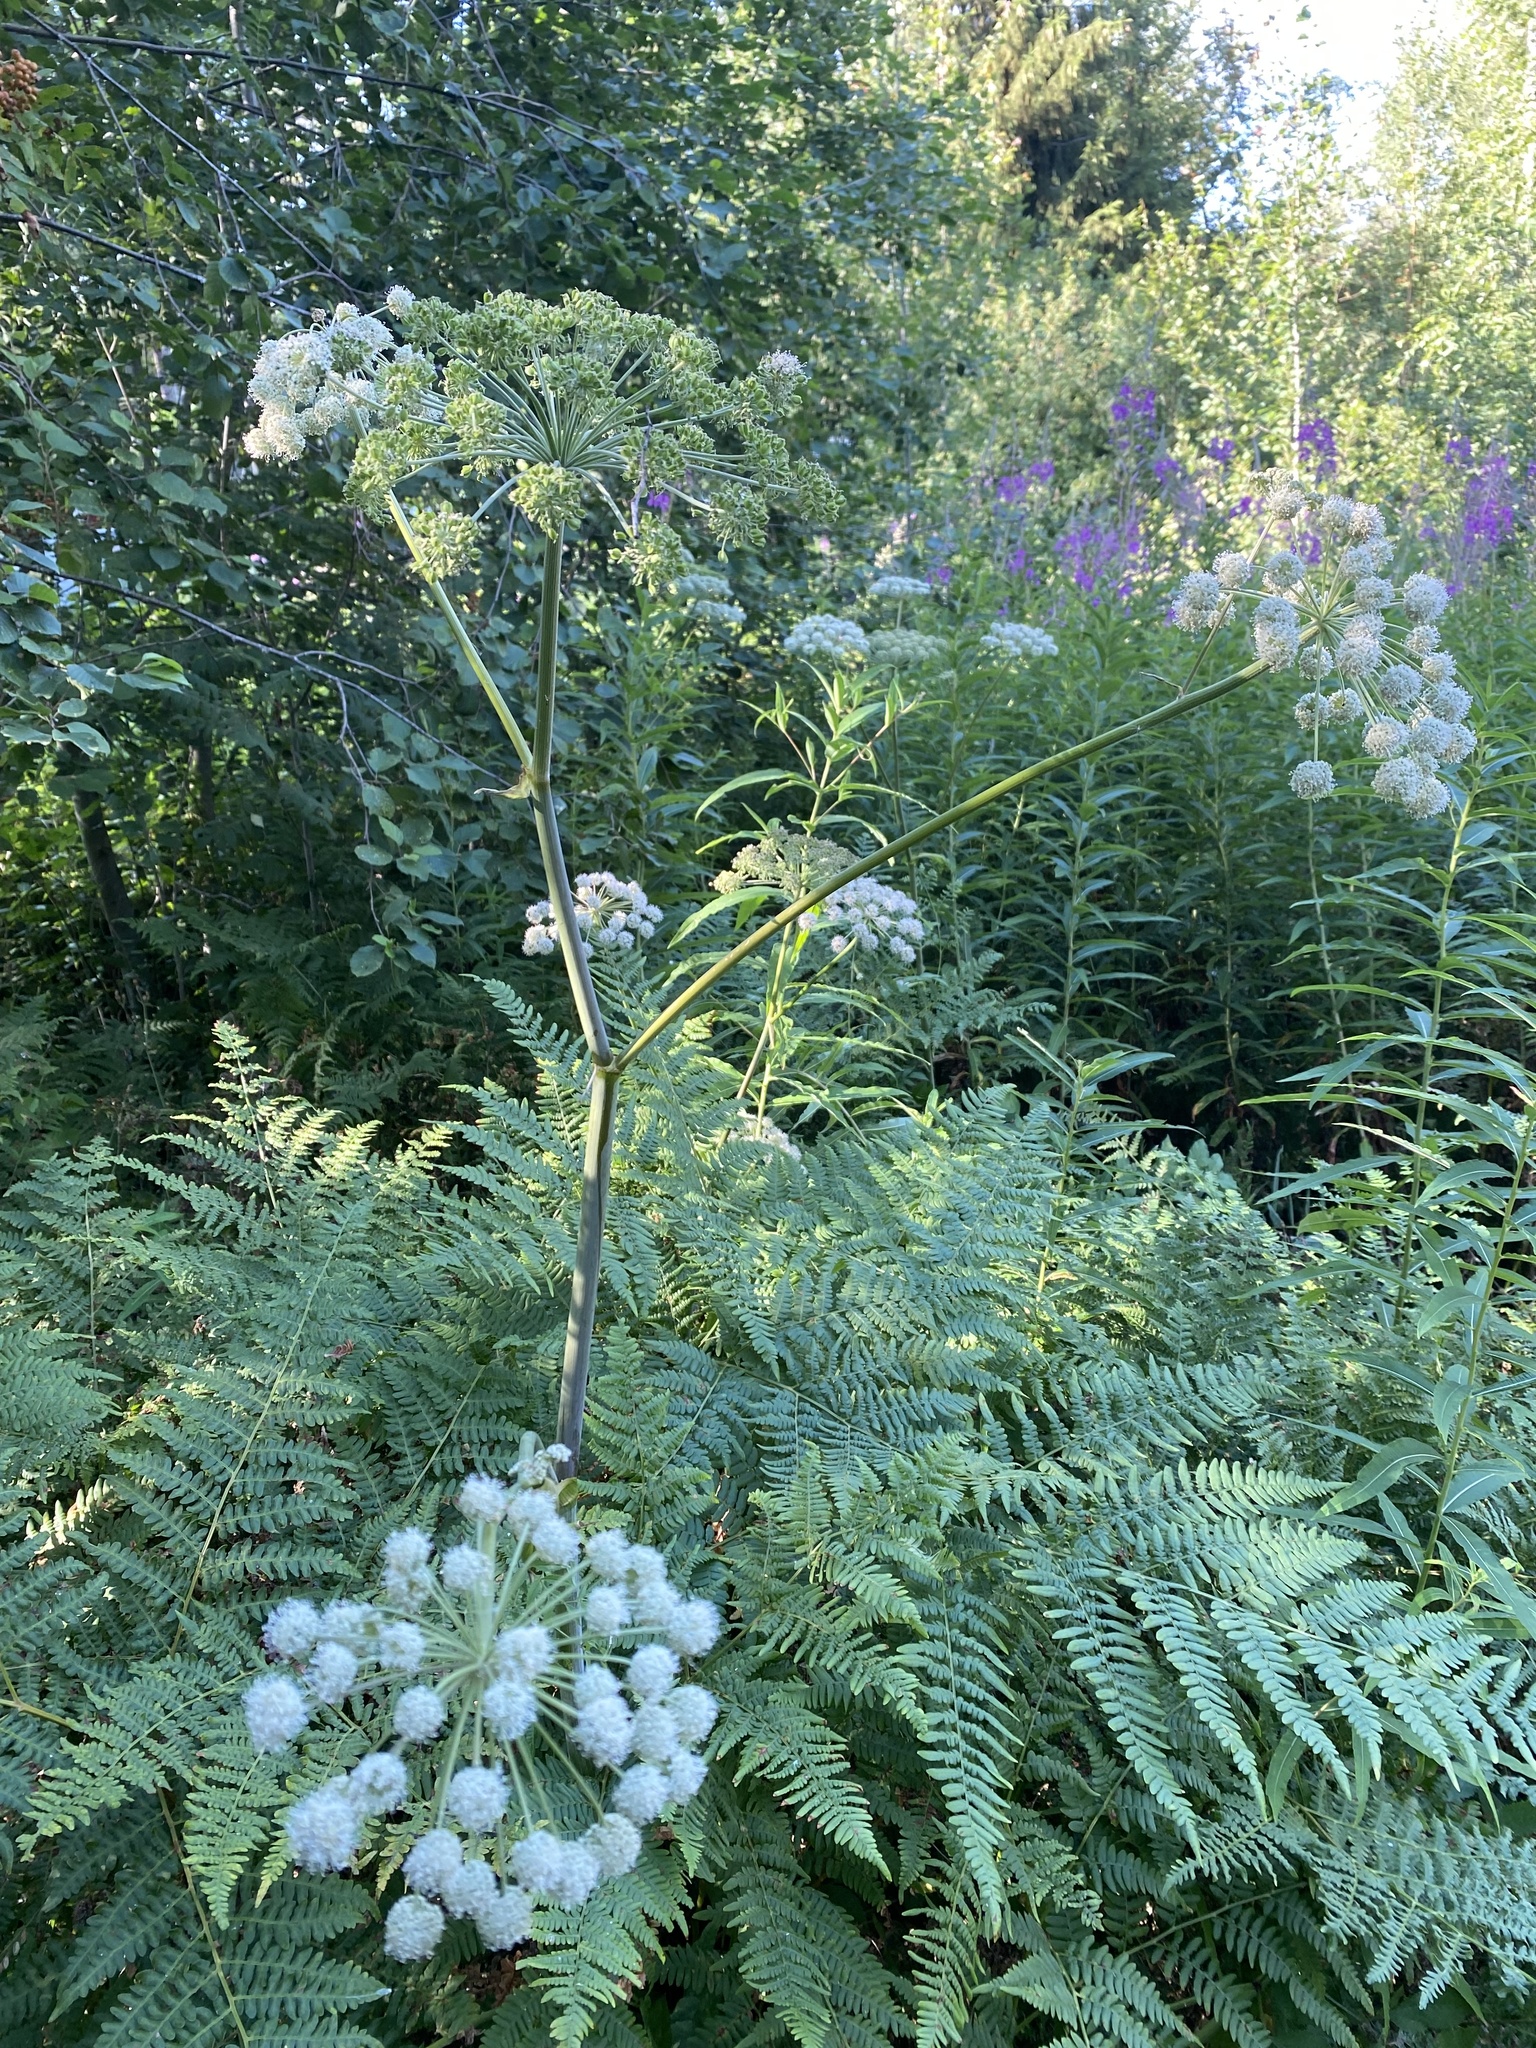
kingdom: Plantae
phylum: Tracheophyta
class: Magnoliopsida
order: Apiales
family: Apiaceae
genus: Angelica
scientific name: Angelica sylvestris
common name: Wild angelica
